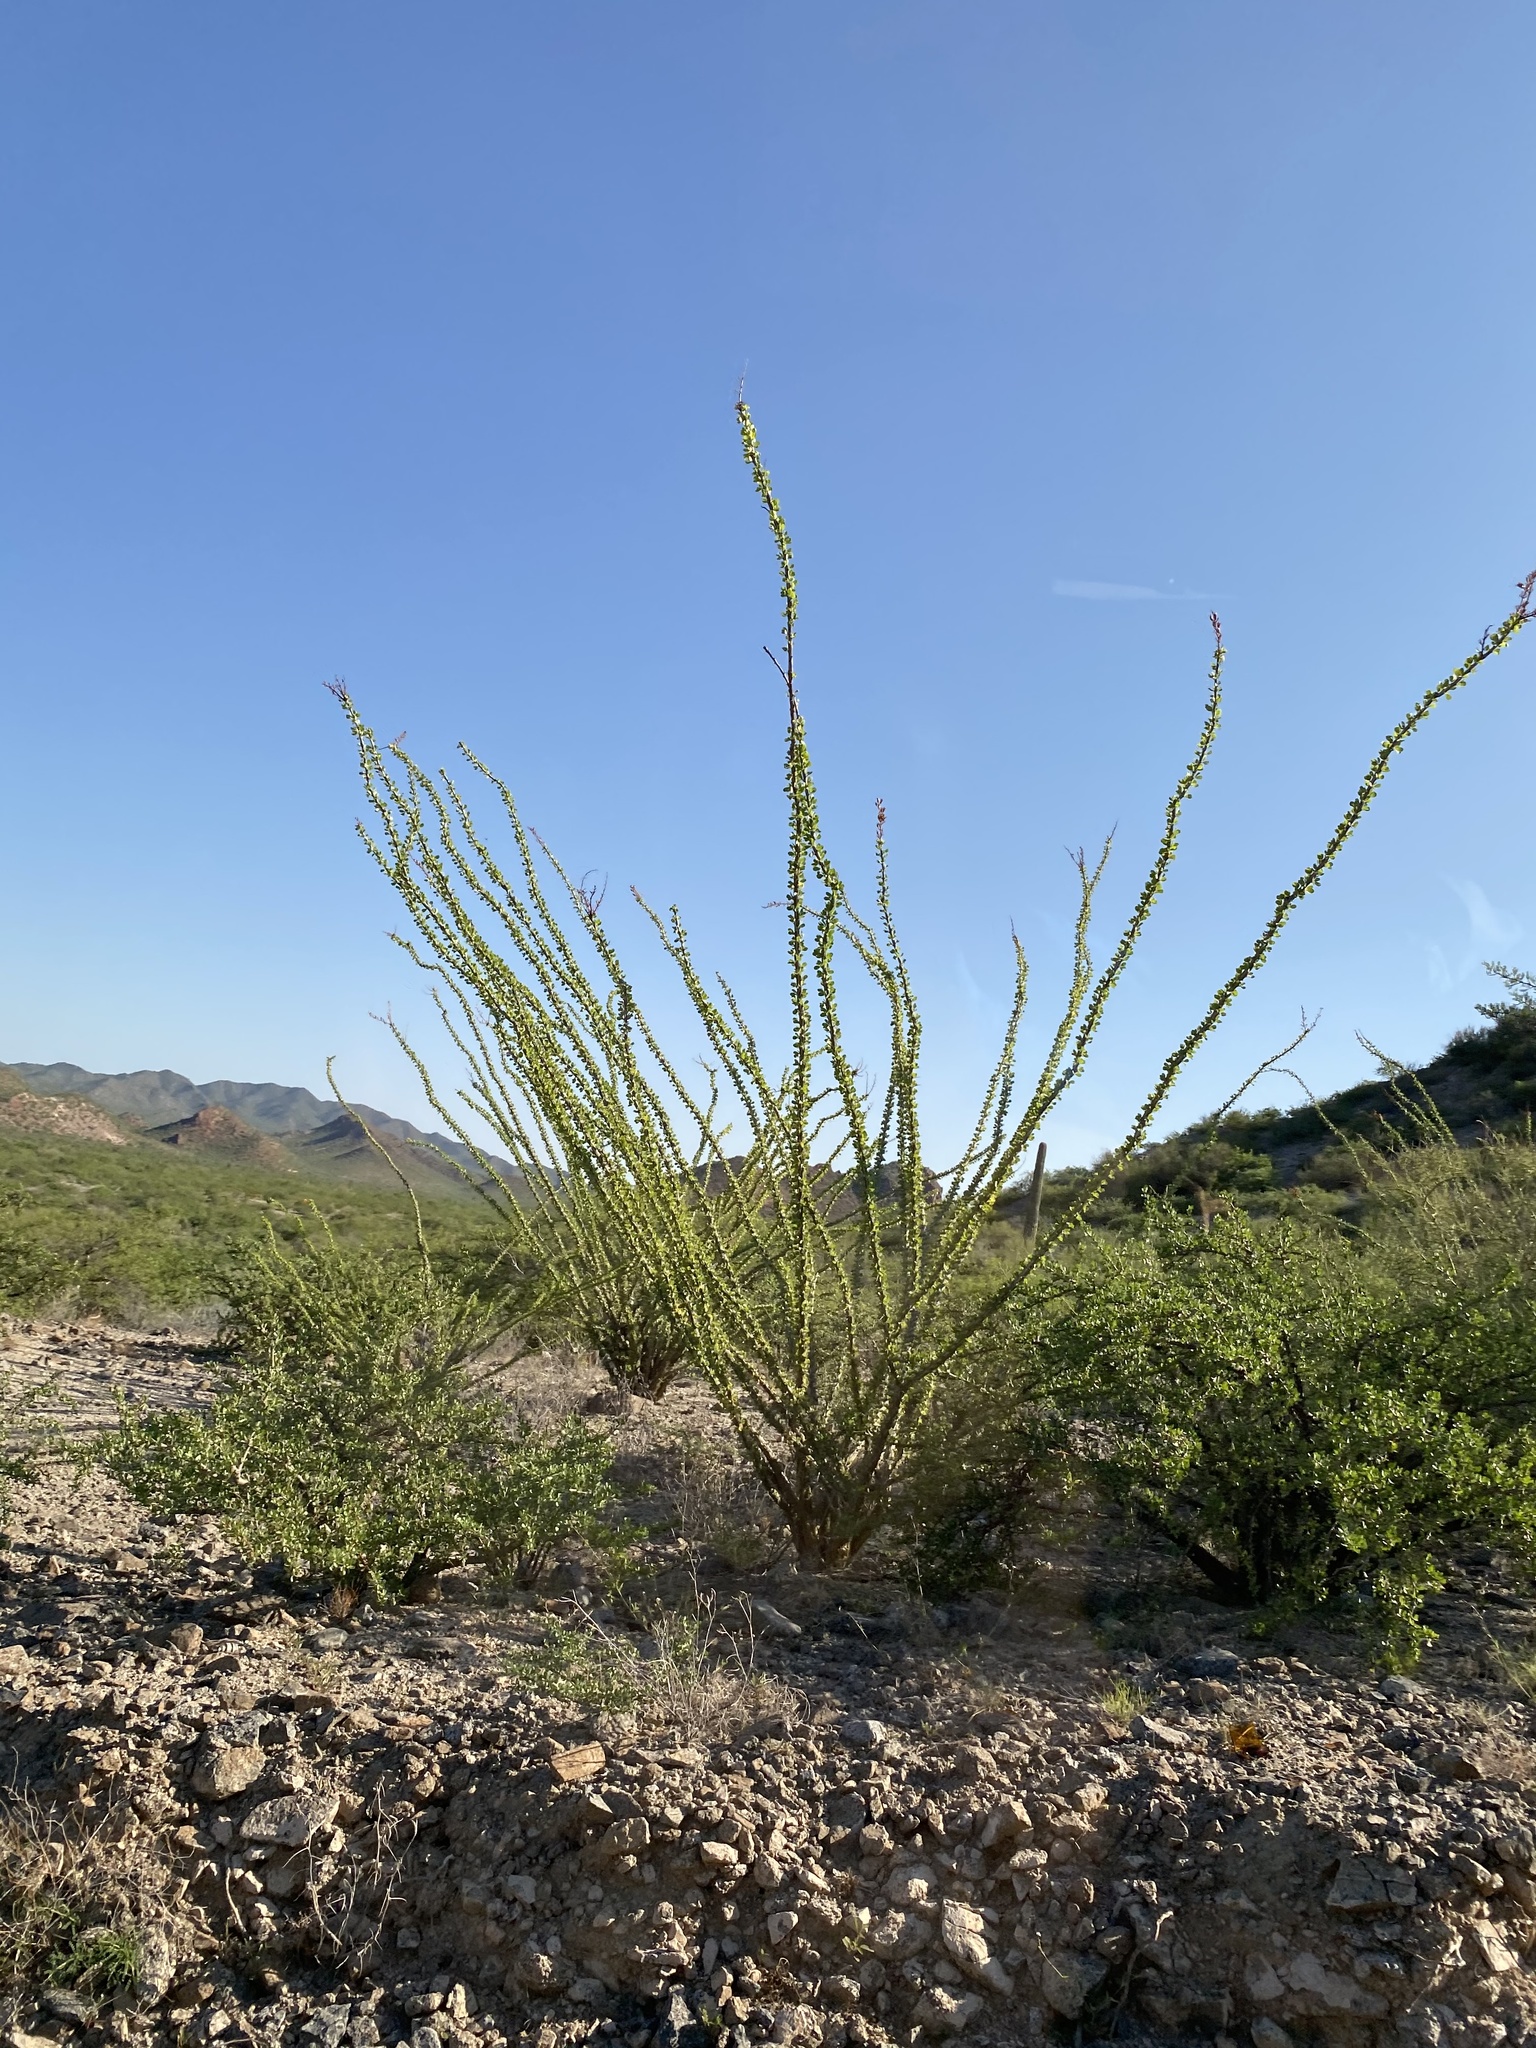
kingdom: Plantae
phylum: Tracheophyta
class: Magnoliopsida
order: Ericales
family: Fouquieriaceae
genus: Fouquieria
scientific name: Fouquieria splendens
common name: Vine-cactus
